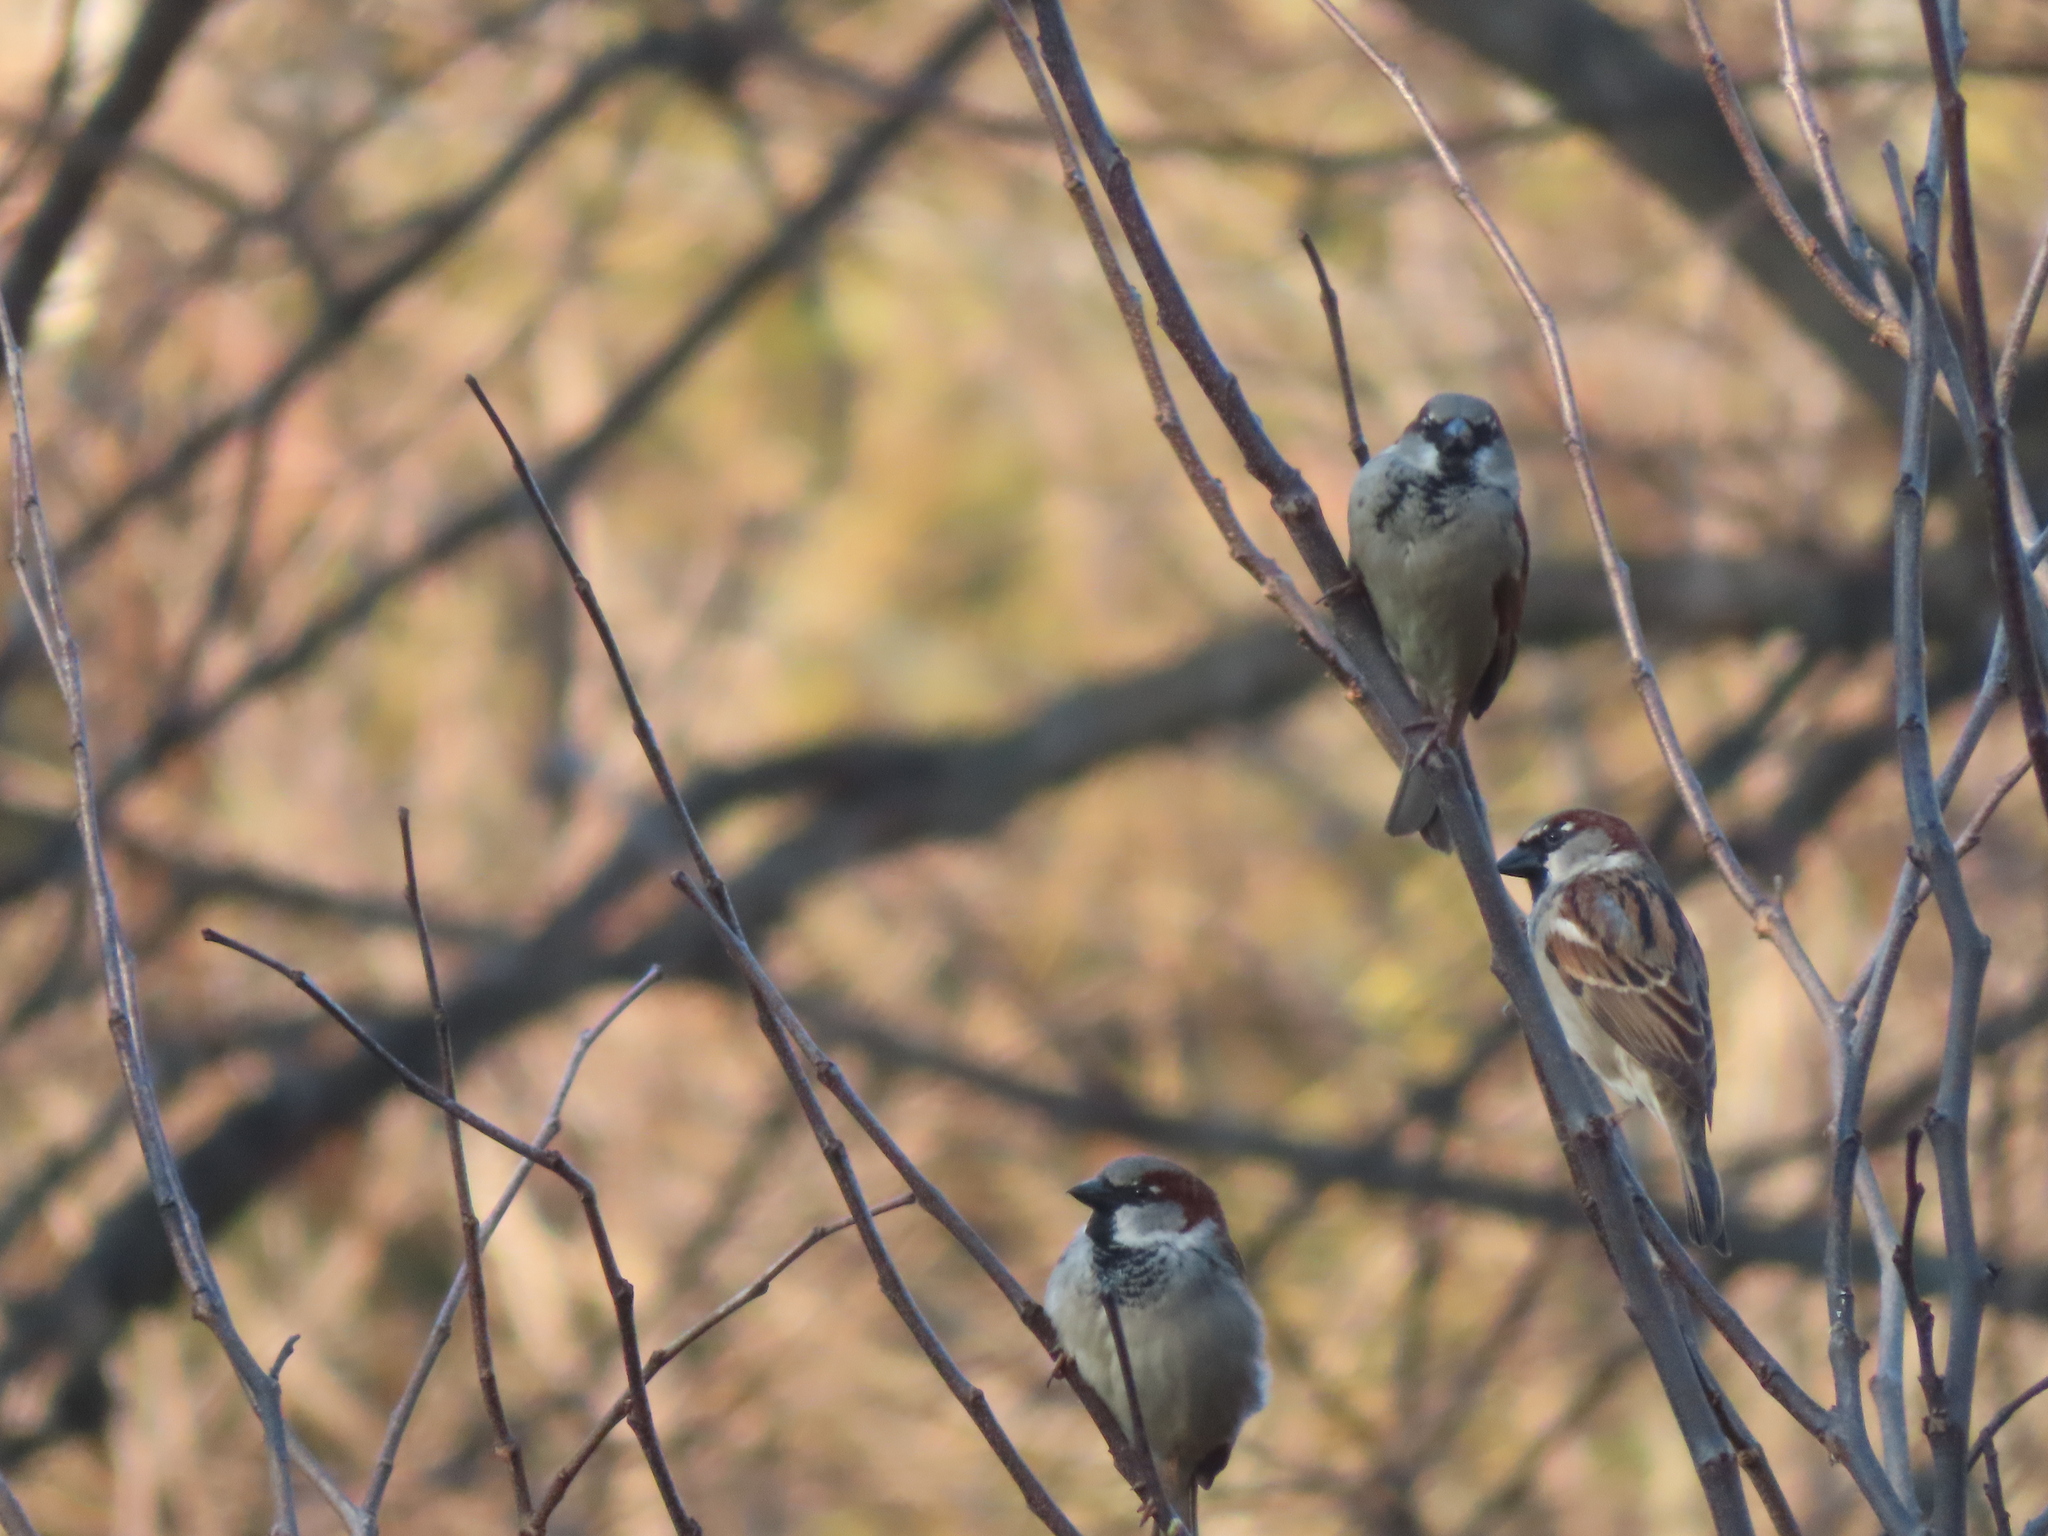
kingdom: Animalia
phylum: Chordata
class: Aves
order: Passeriformes
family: Passeridae
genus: Passer
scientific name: Passer domesticus
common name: House sparrow
